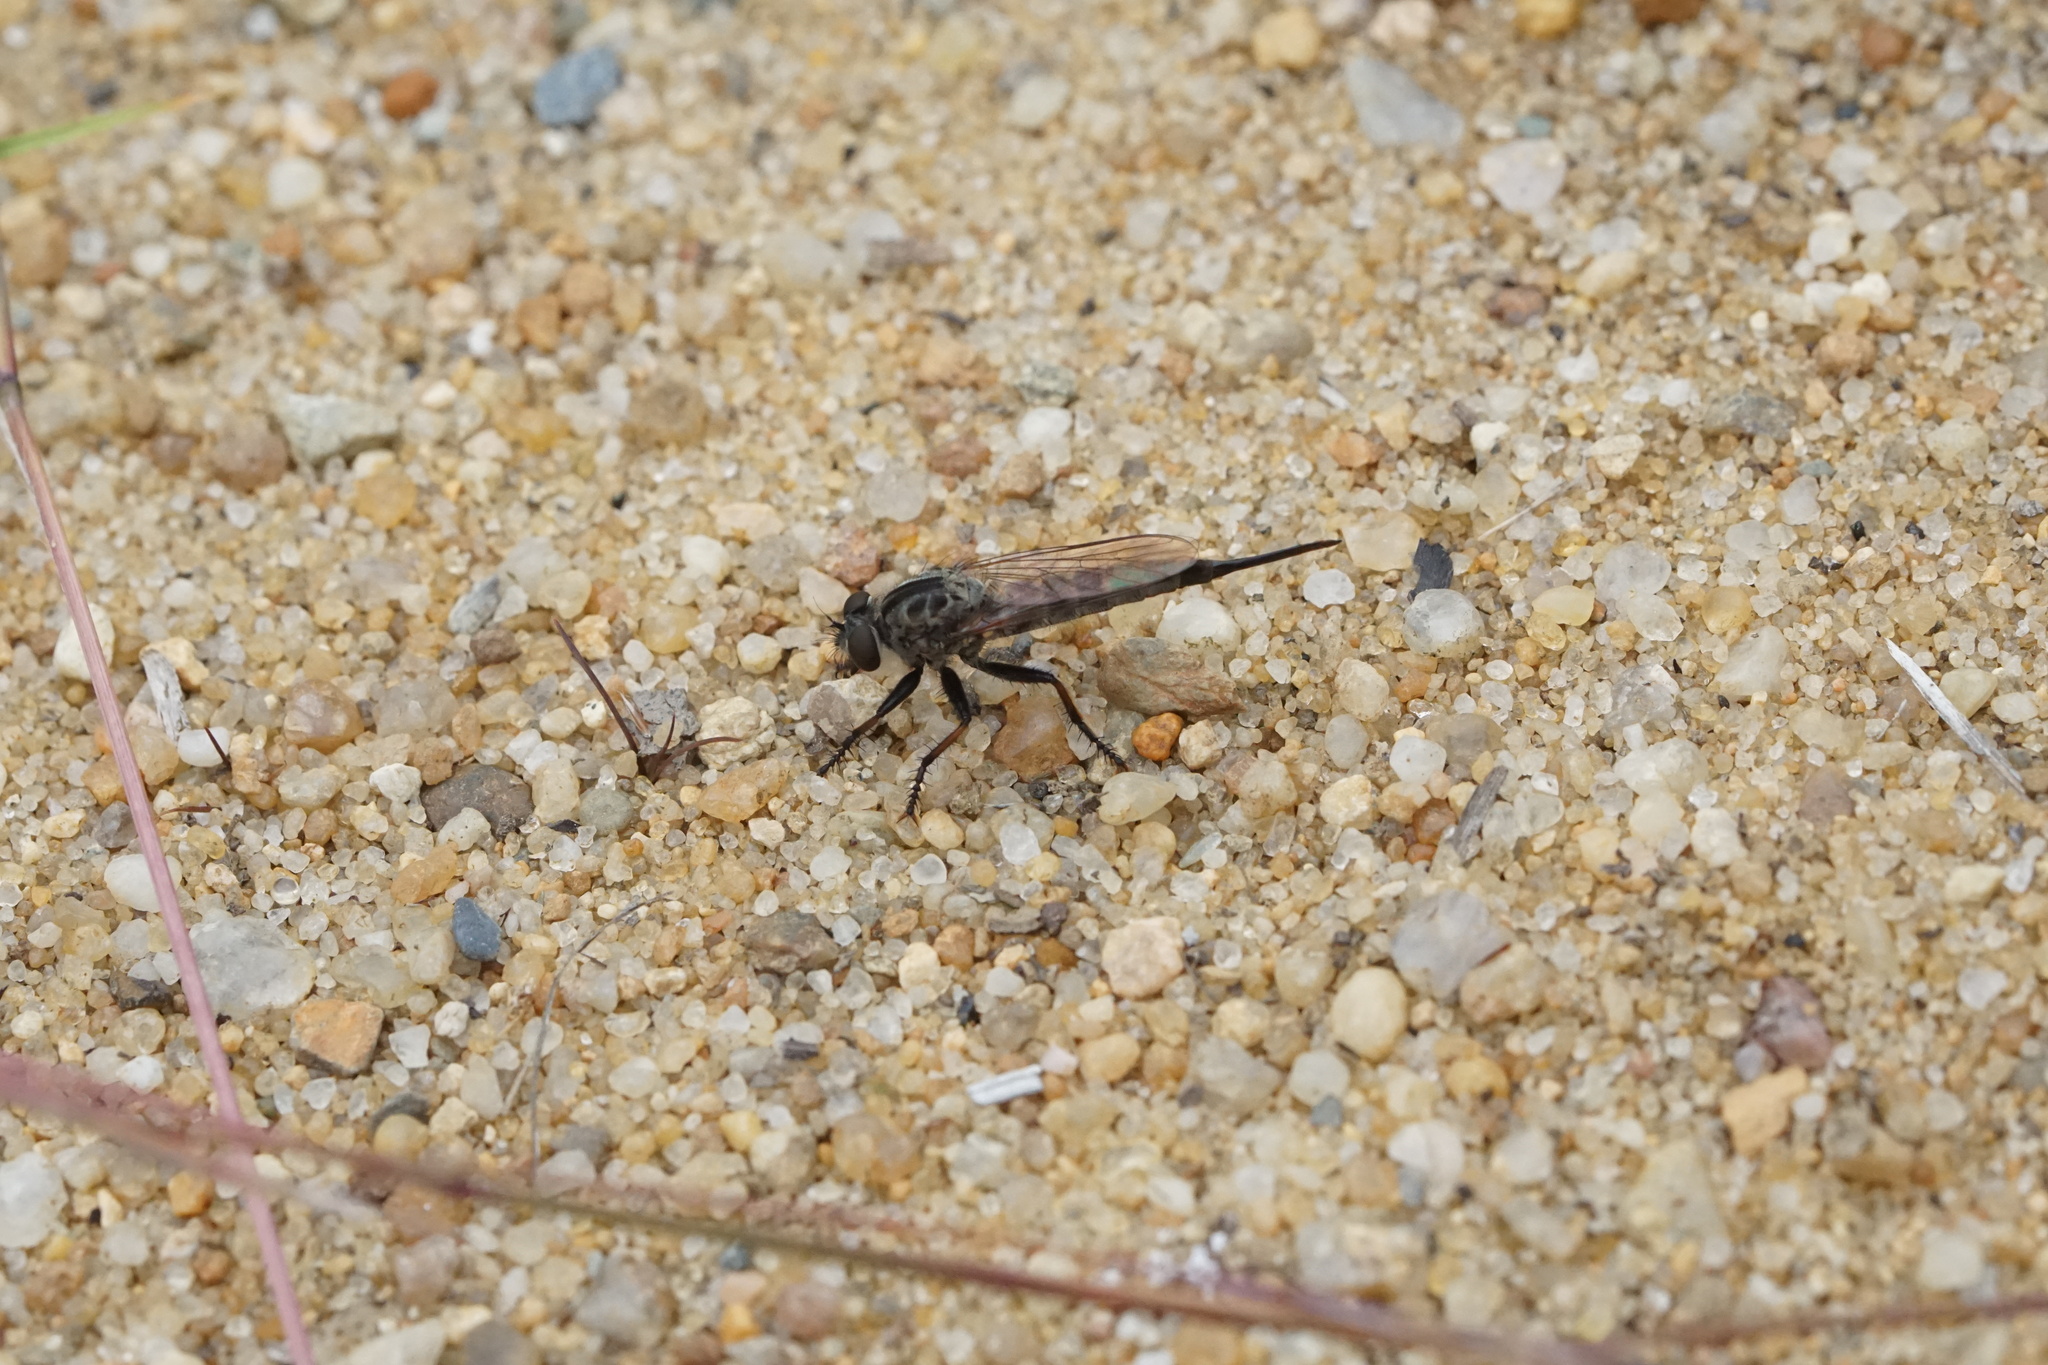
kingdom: Animalia
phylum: Arthropoda
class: Insecta
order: Diptera
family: Asilidae
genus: Efferia
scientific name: Efferia aestuans
